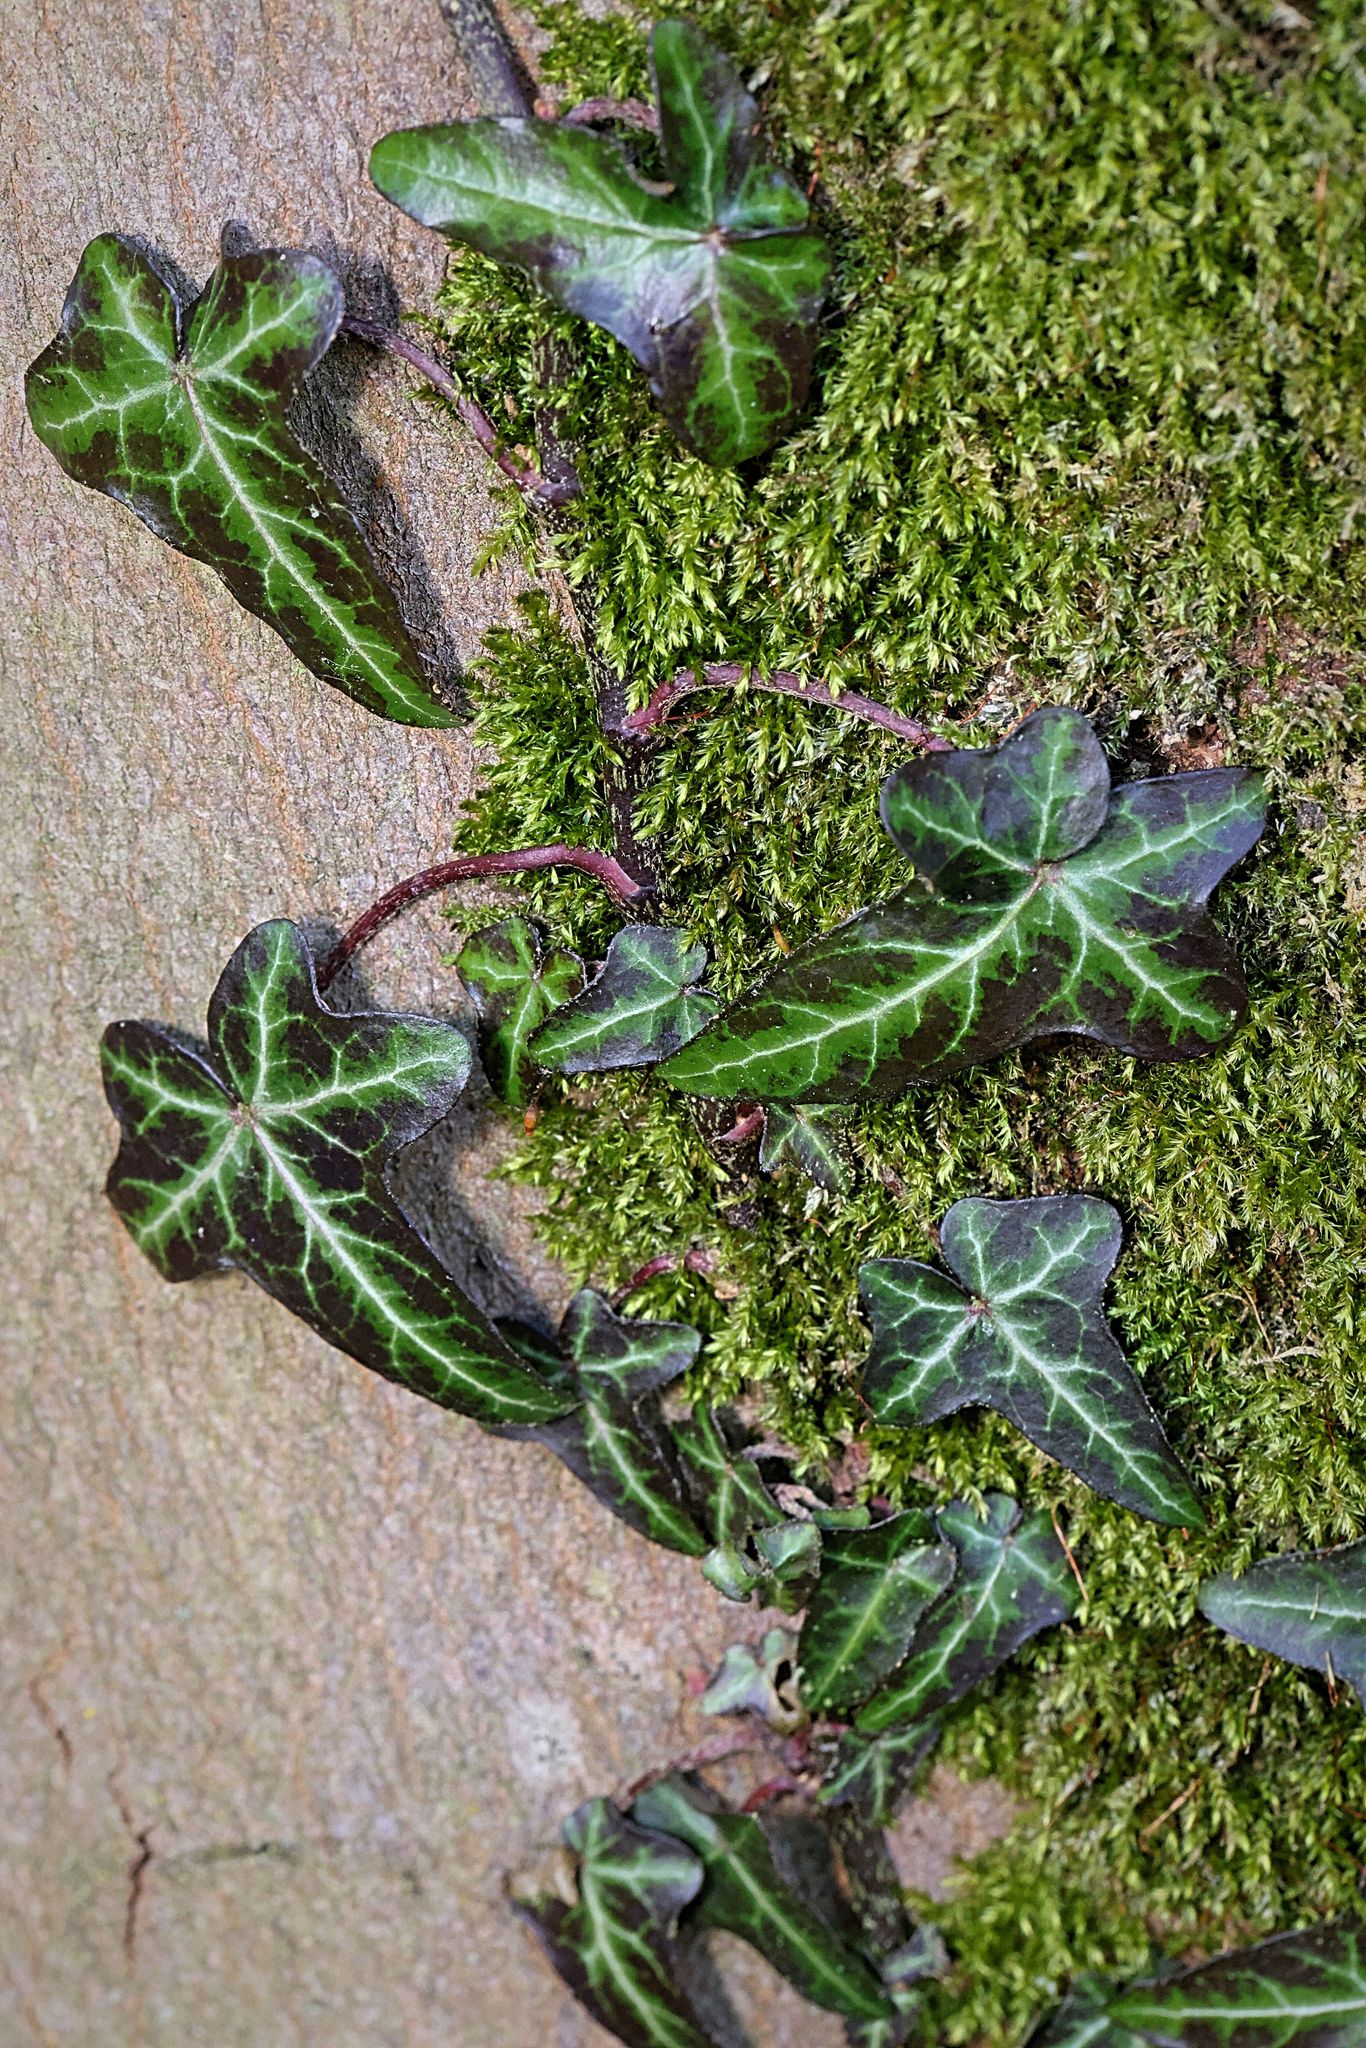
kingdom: Plantae
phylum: Tracheophyta
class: Magnoliopsida
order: Apiales
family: Araliaceae
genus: Hedera
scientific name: Hedera helix
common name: Ivy
